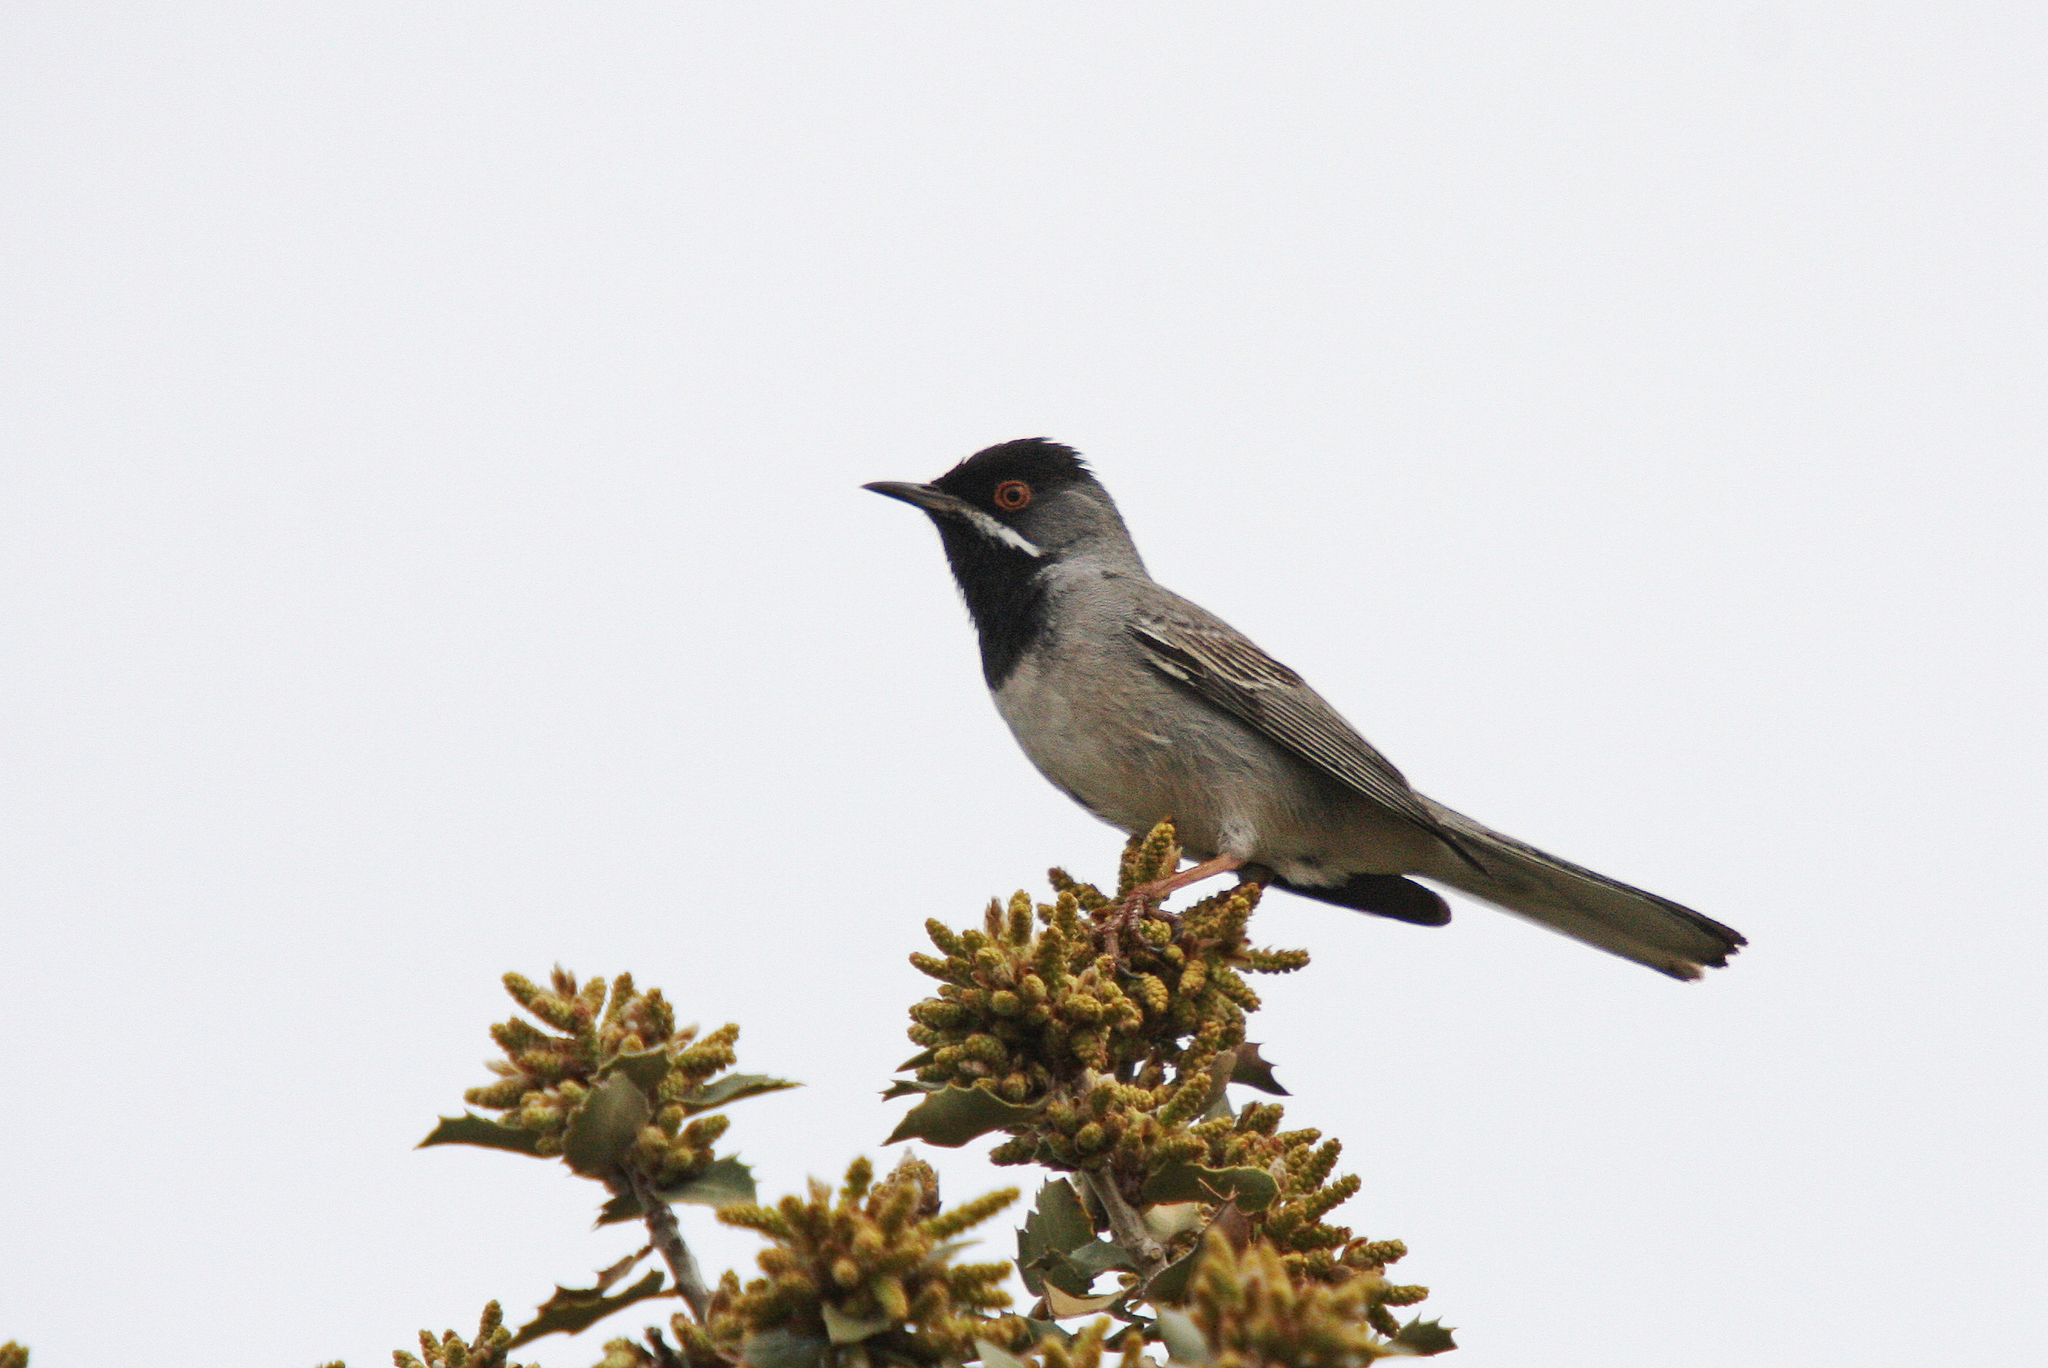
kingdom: Animalia
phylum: Chordata
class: Aves
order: Passeriformes
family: Sylviidae
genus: Sylvia
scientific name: Sylvia ruppeli
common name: Rüppell's warbler
